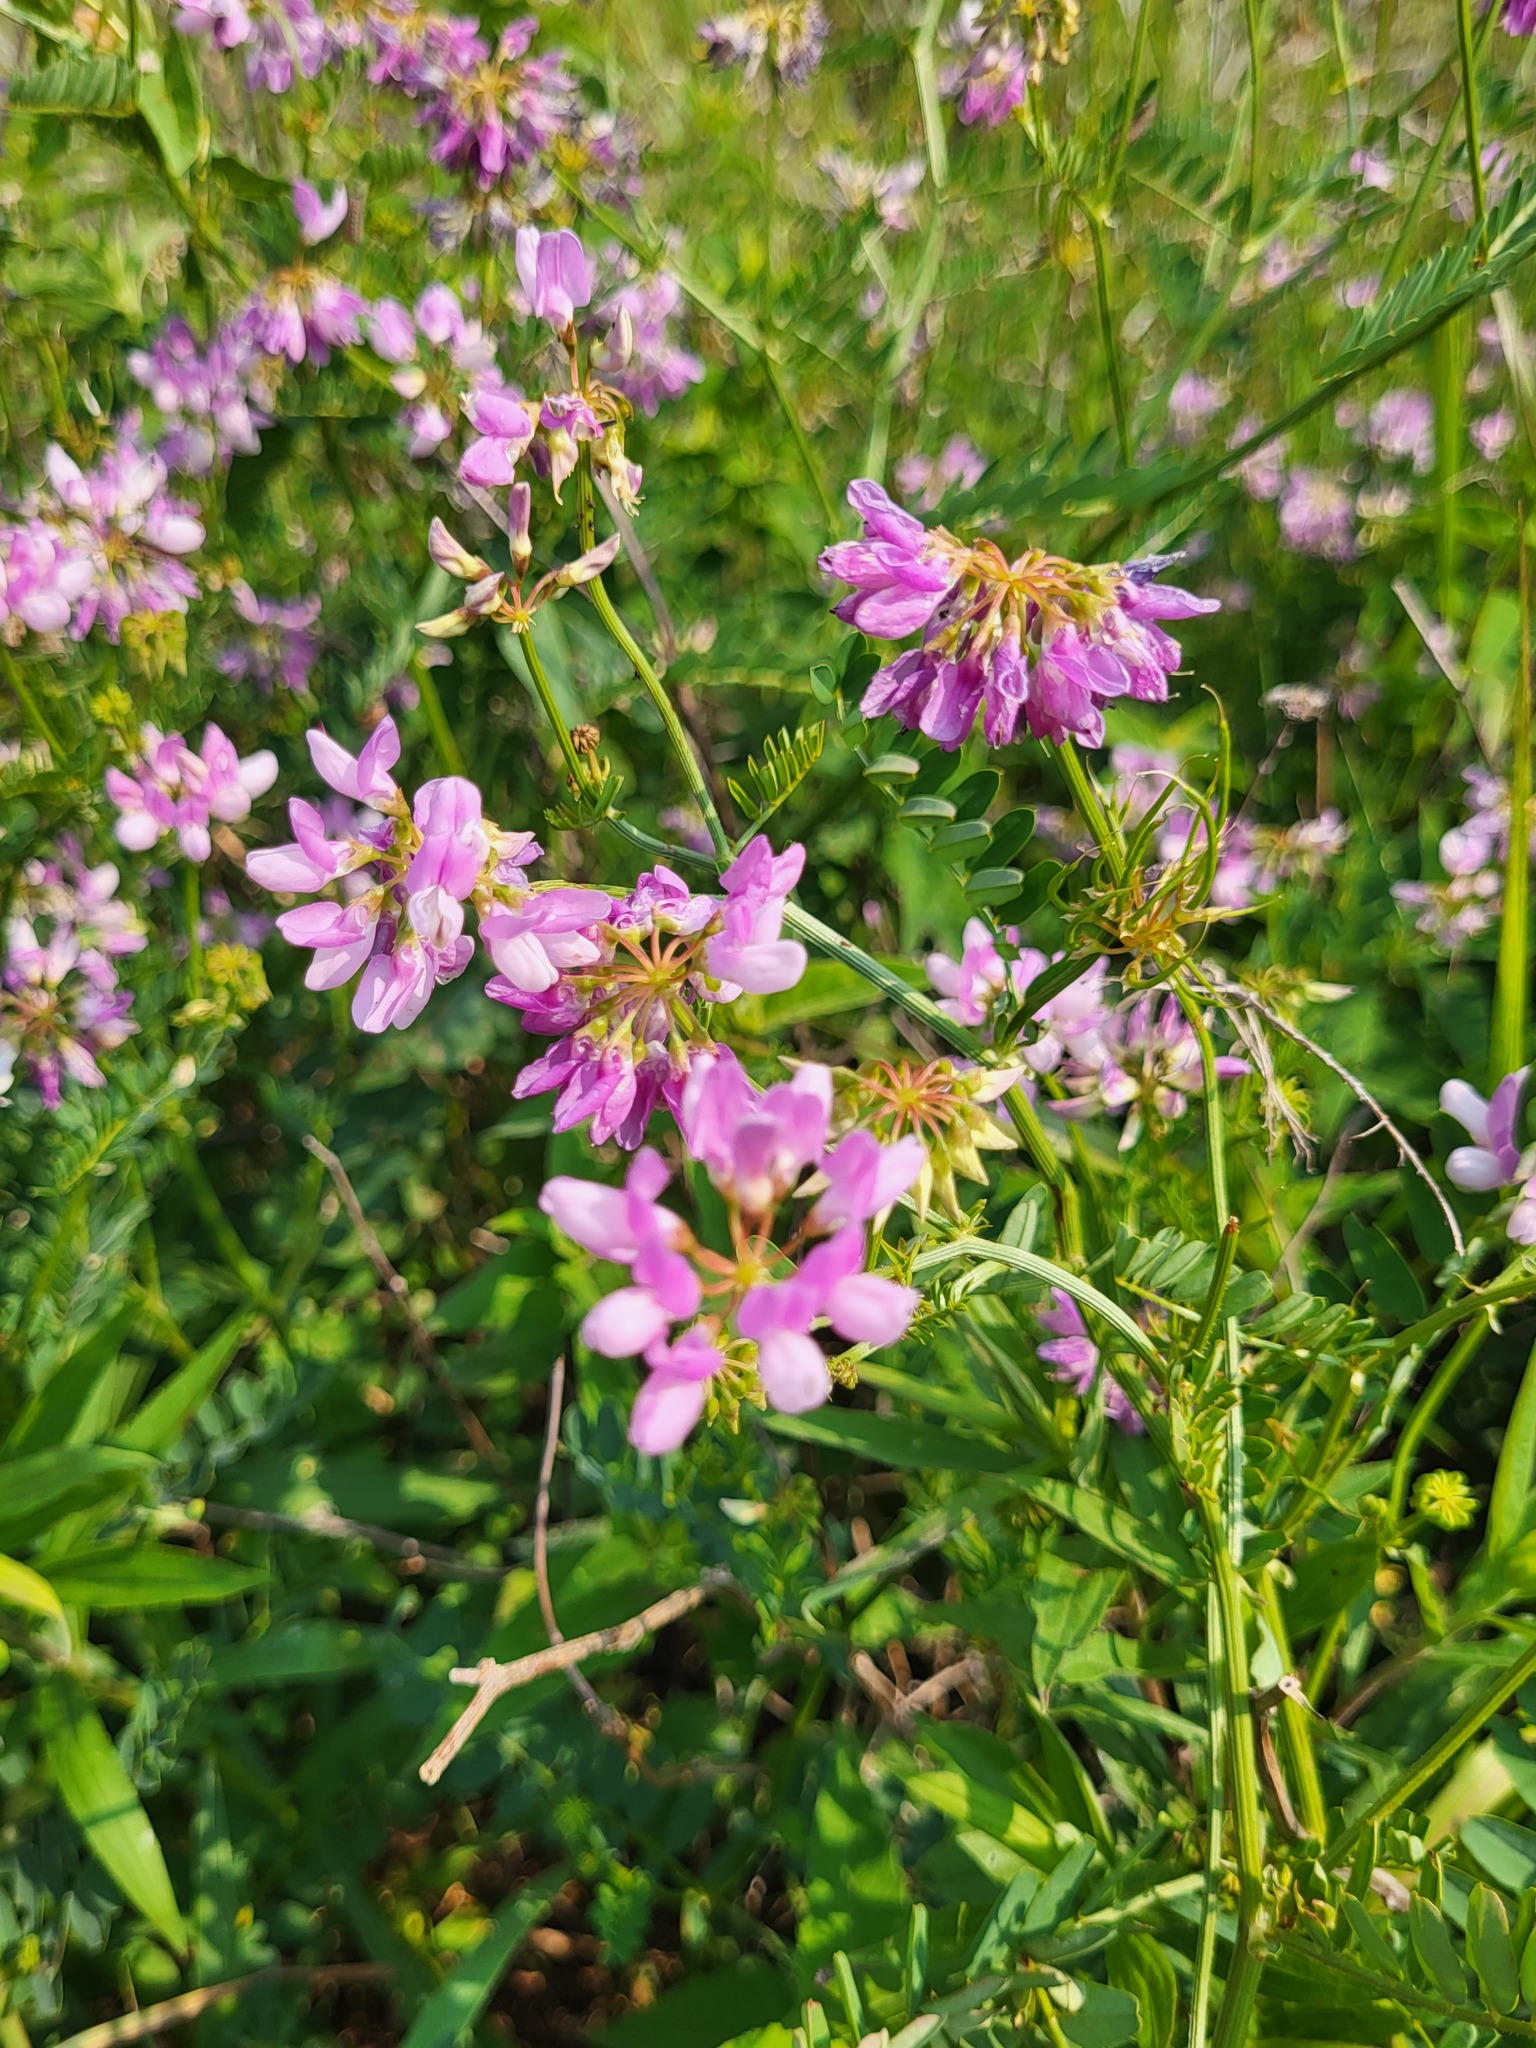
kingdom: Plantae
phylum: Tracheophyta
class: Magnoliopsida
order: Fabales
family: Fabaceae
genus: Coronilla
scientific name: Coronilla varia
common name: Crownvetch
